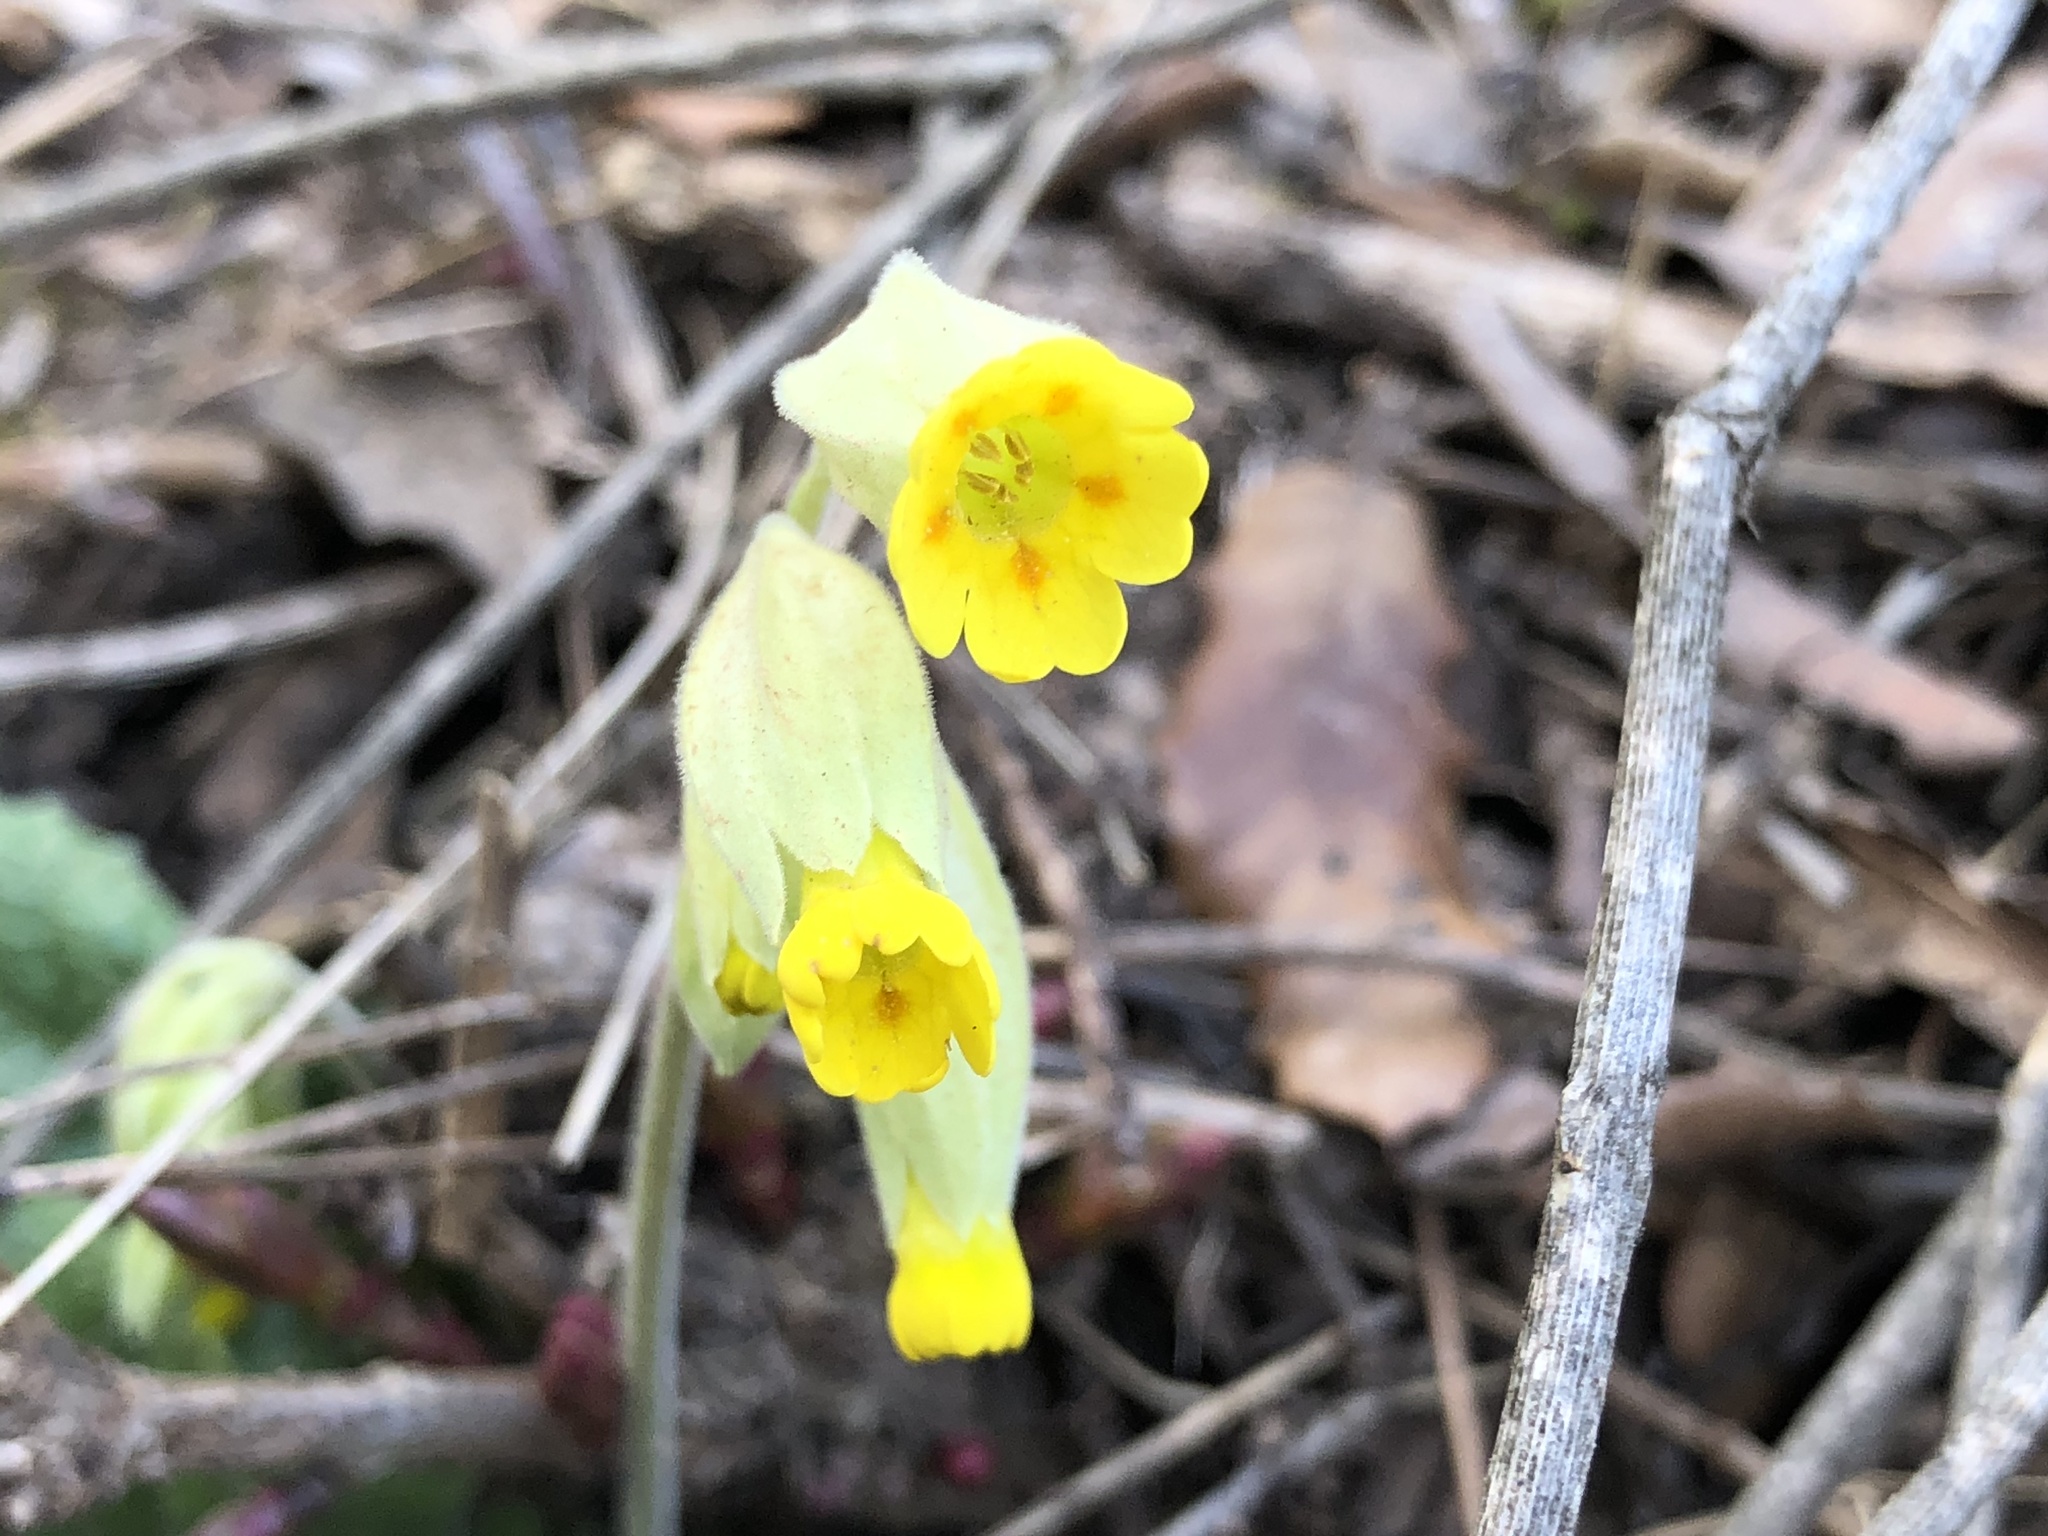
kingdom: Plantae
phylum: Tracheophyta
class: Magnoliopsida
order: Ericales
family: Primulaceae
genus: Primula
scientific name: Primula veris
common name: Cowslip
